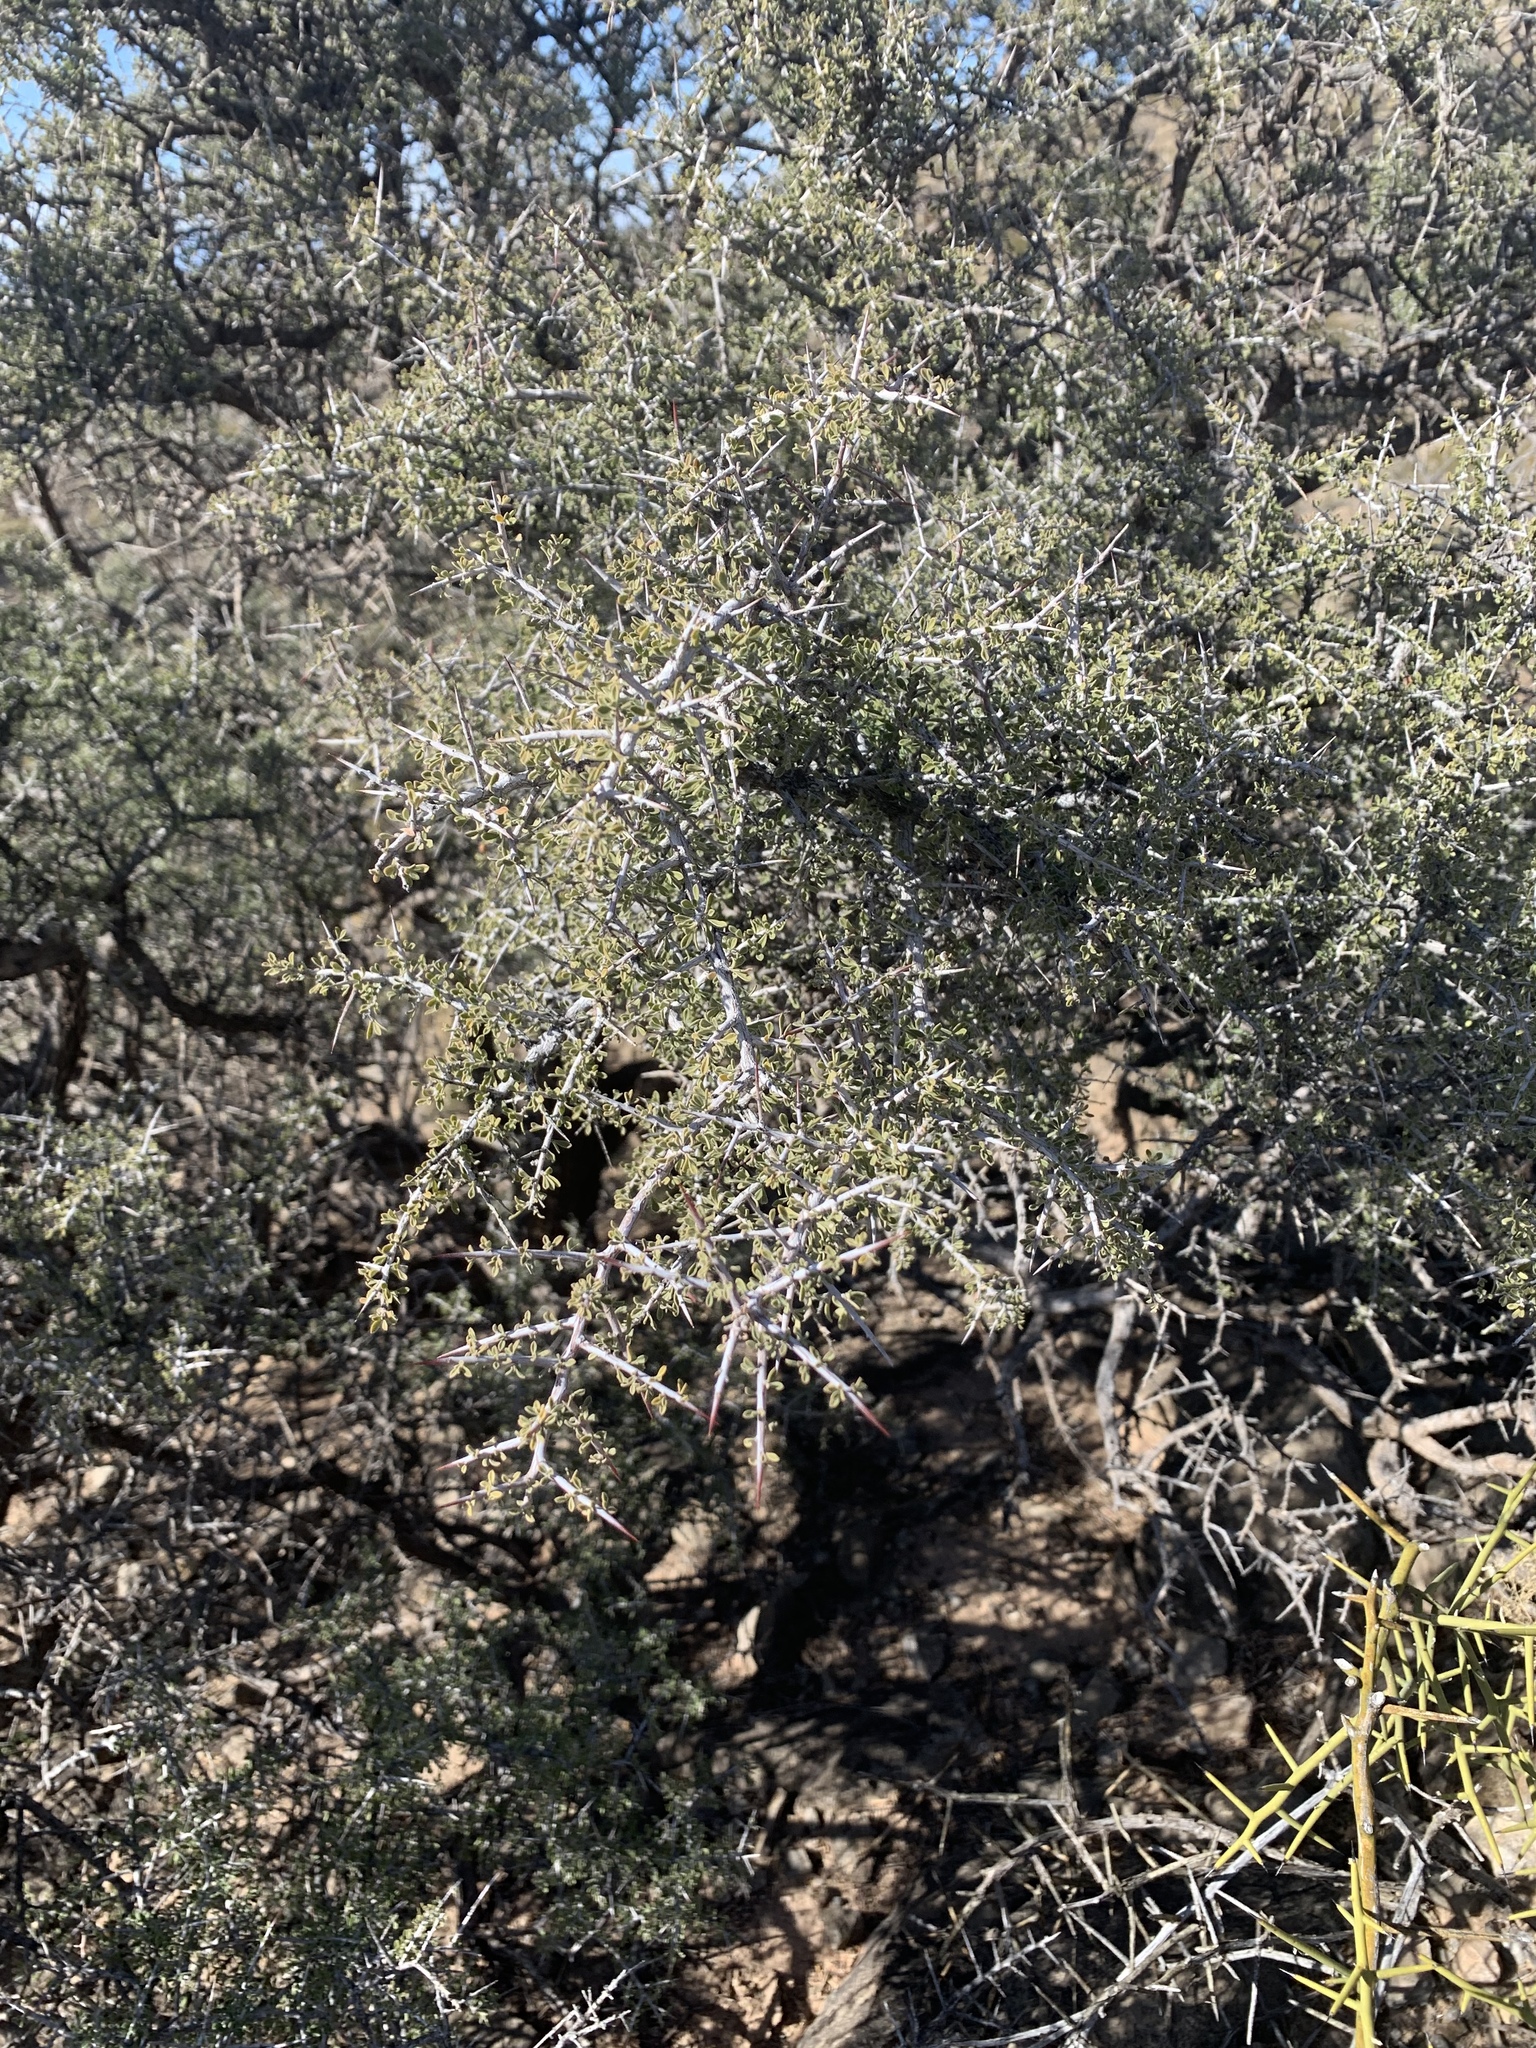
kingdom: Plantae
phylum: Tracheophyta
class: Magnoliopsida
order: Rosales
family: Rhamnaceae
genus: Condalia
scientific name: Condalia warnockii
